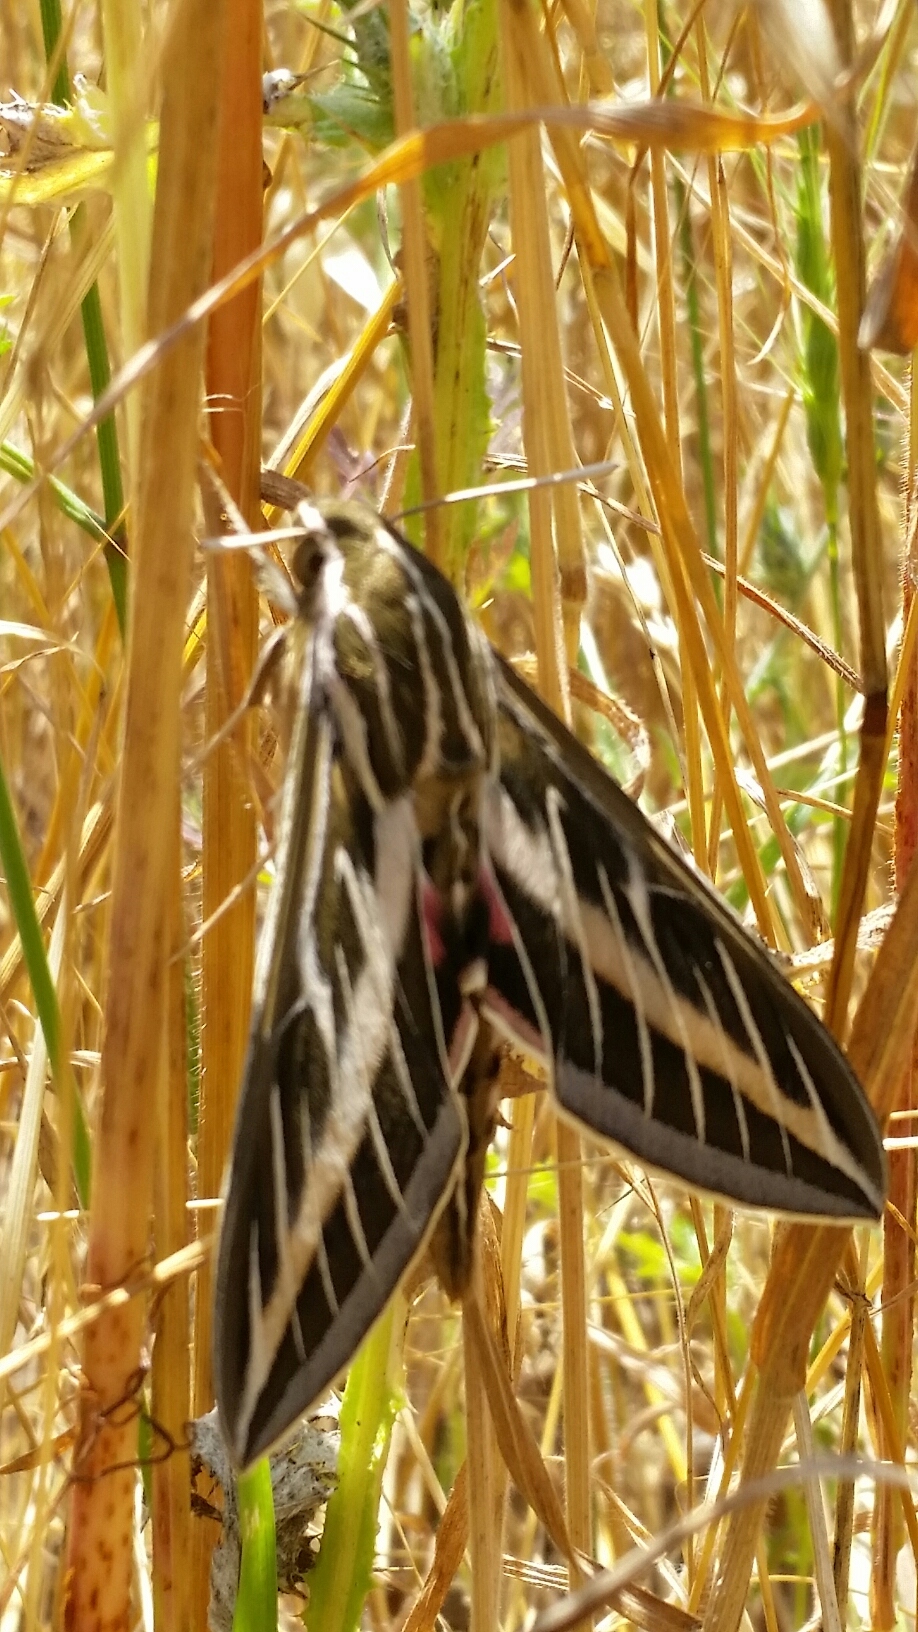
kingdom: Animalia
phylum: Arthropoda
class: Insecta
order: Lepidoptera
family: Sphingidae
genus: Hyles
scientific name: Hyles lineata
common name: White-lined sphinx
